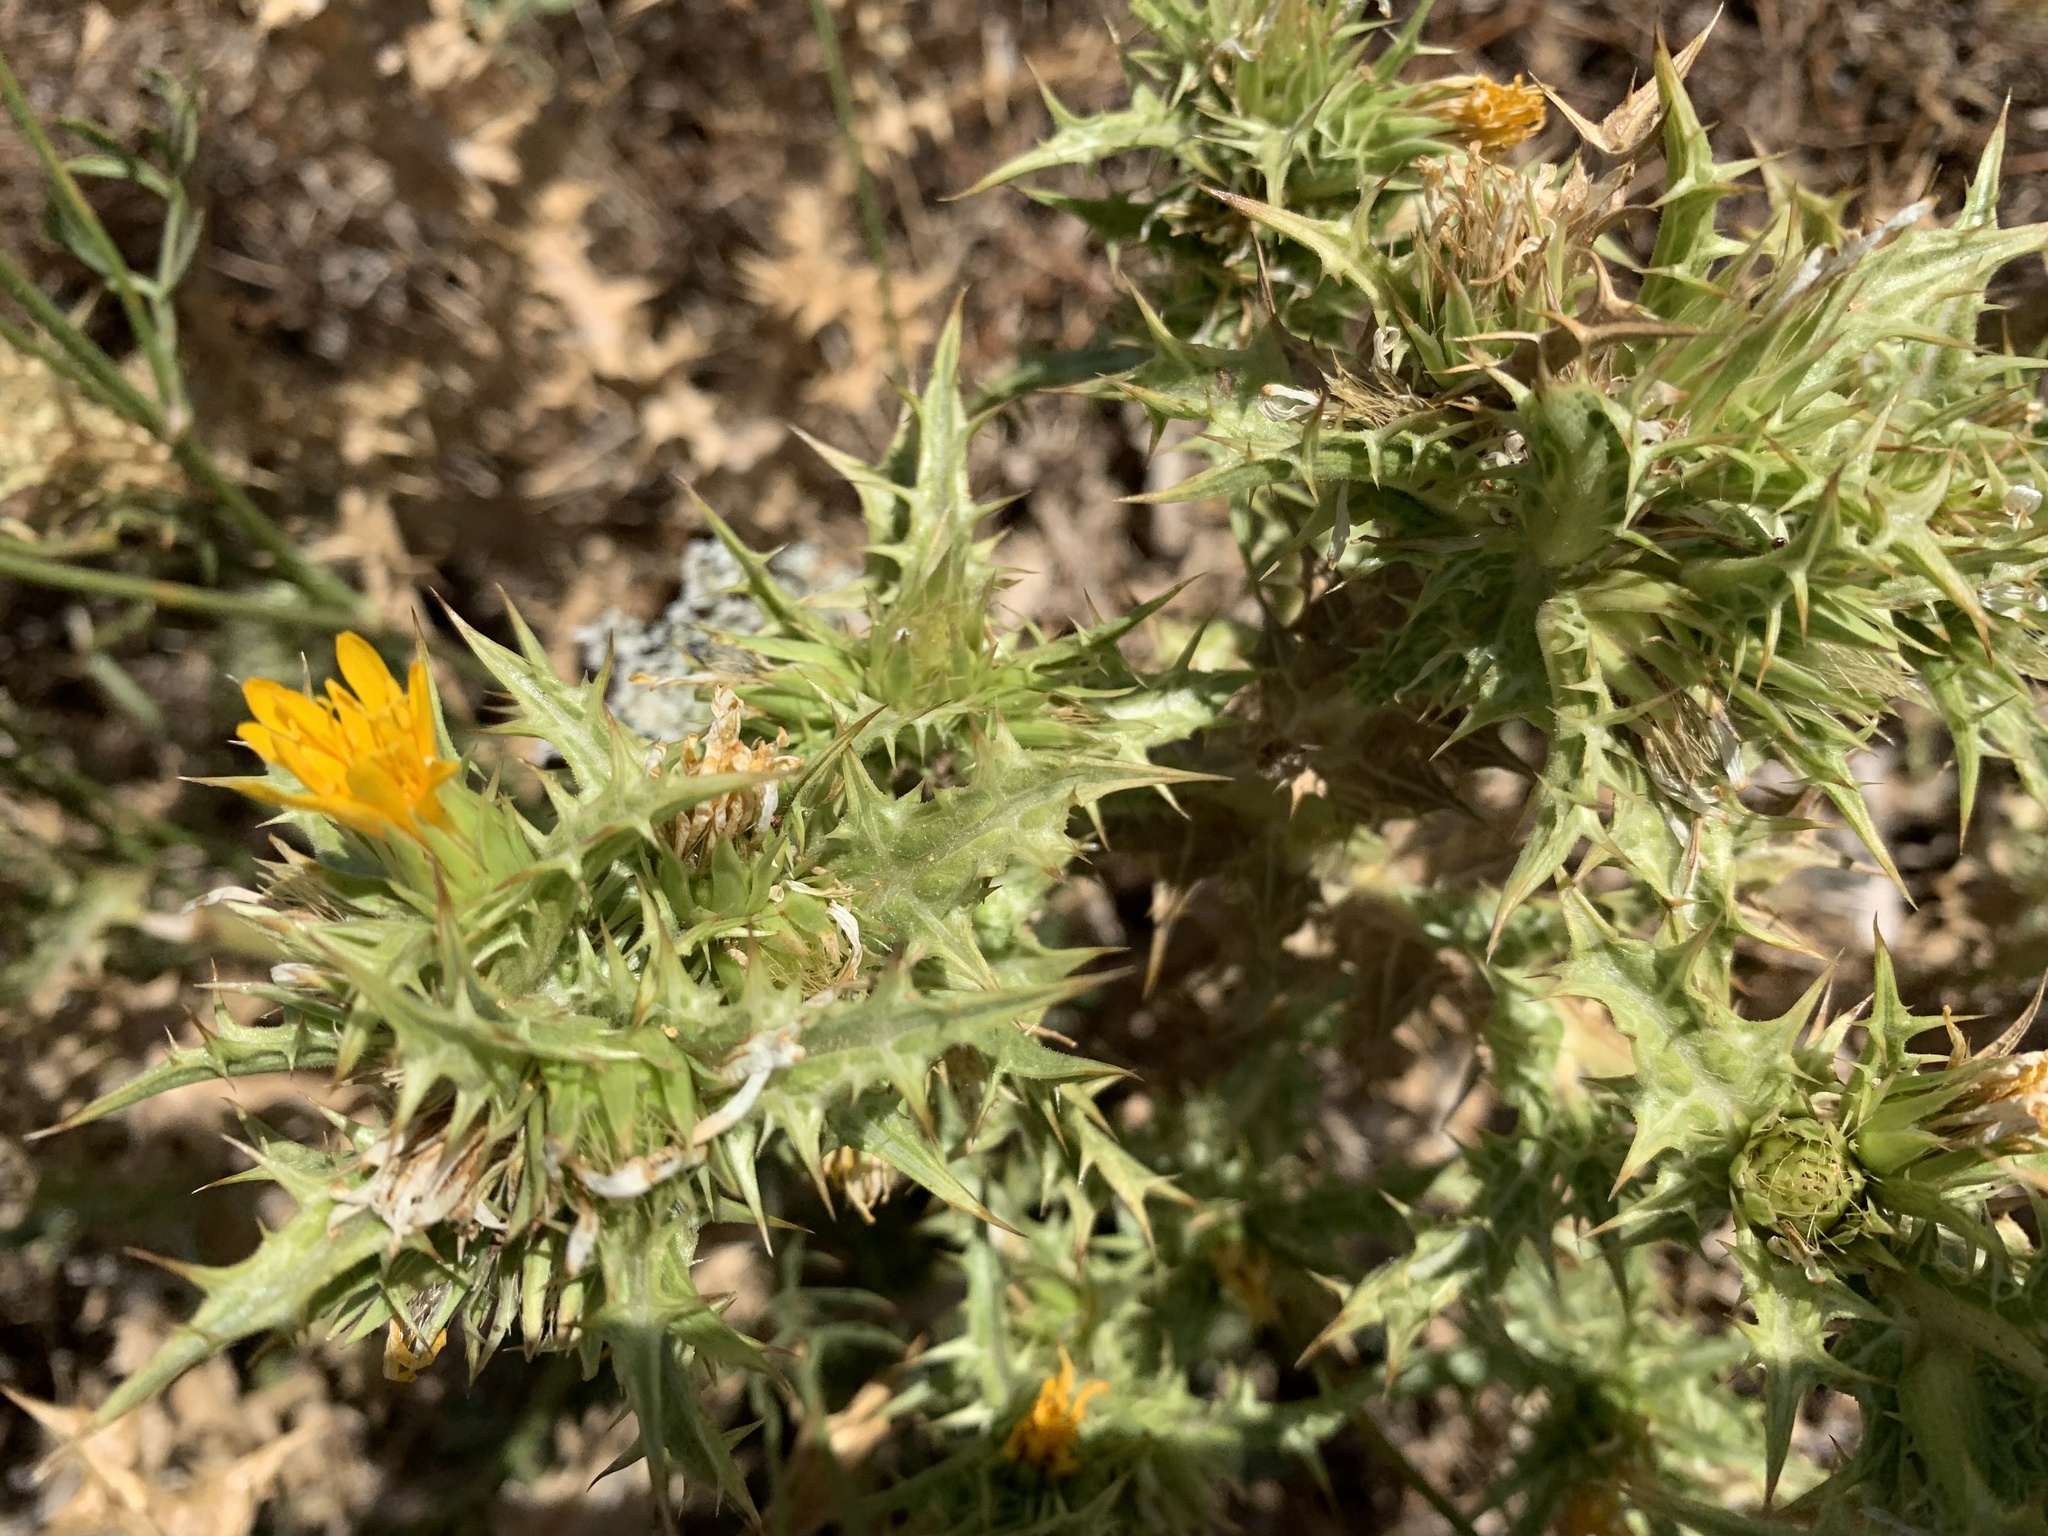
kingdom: Plantae
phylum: Tracheophyta
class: Magnoliopsida
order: Asterales
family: Asteraceae
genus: Scolymus
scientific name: Scolymus hispanicus
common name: Golden thistle
